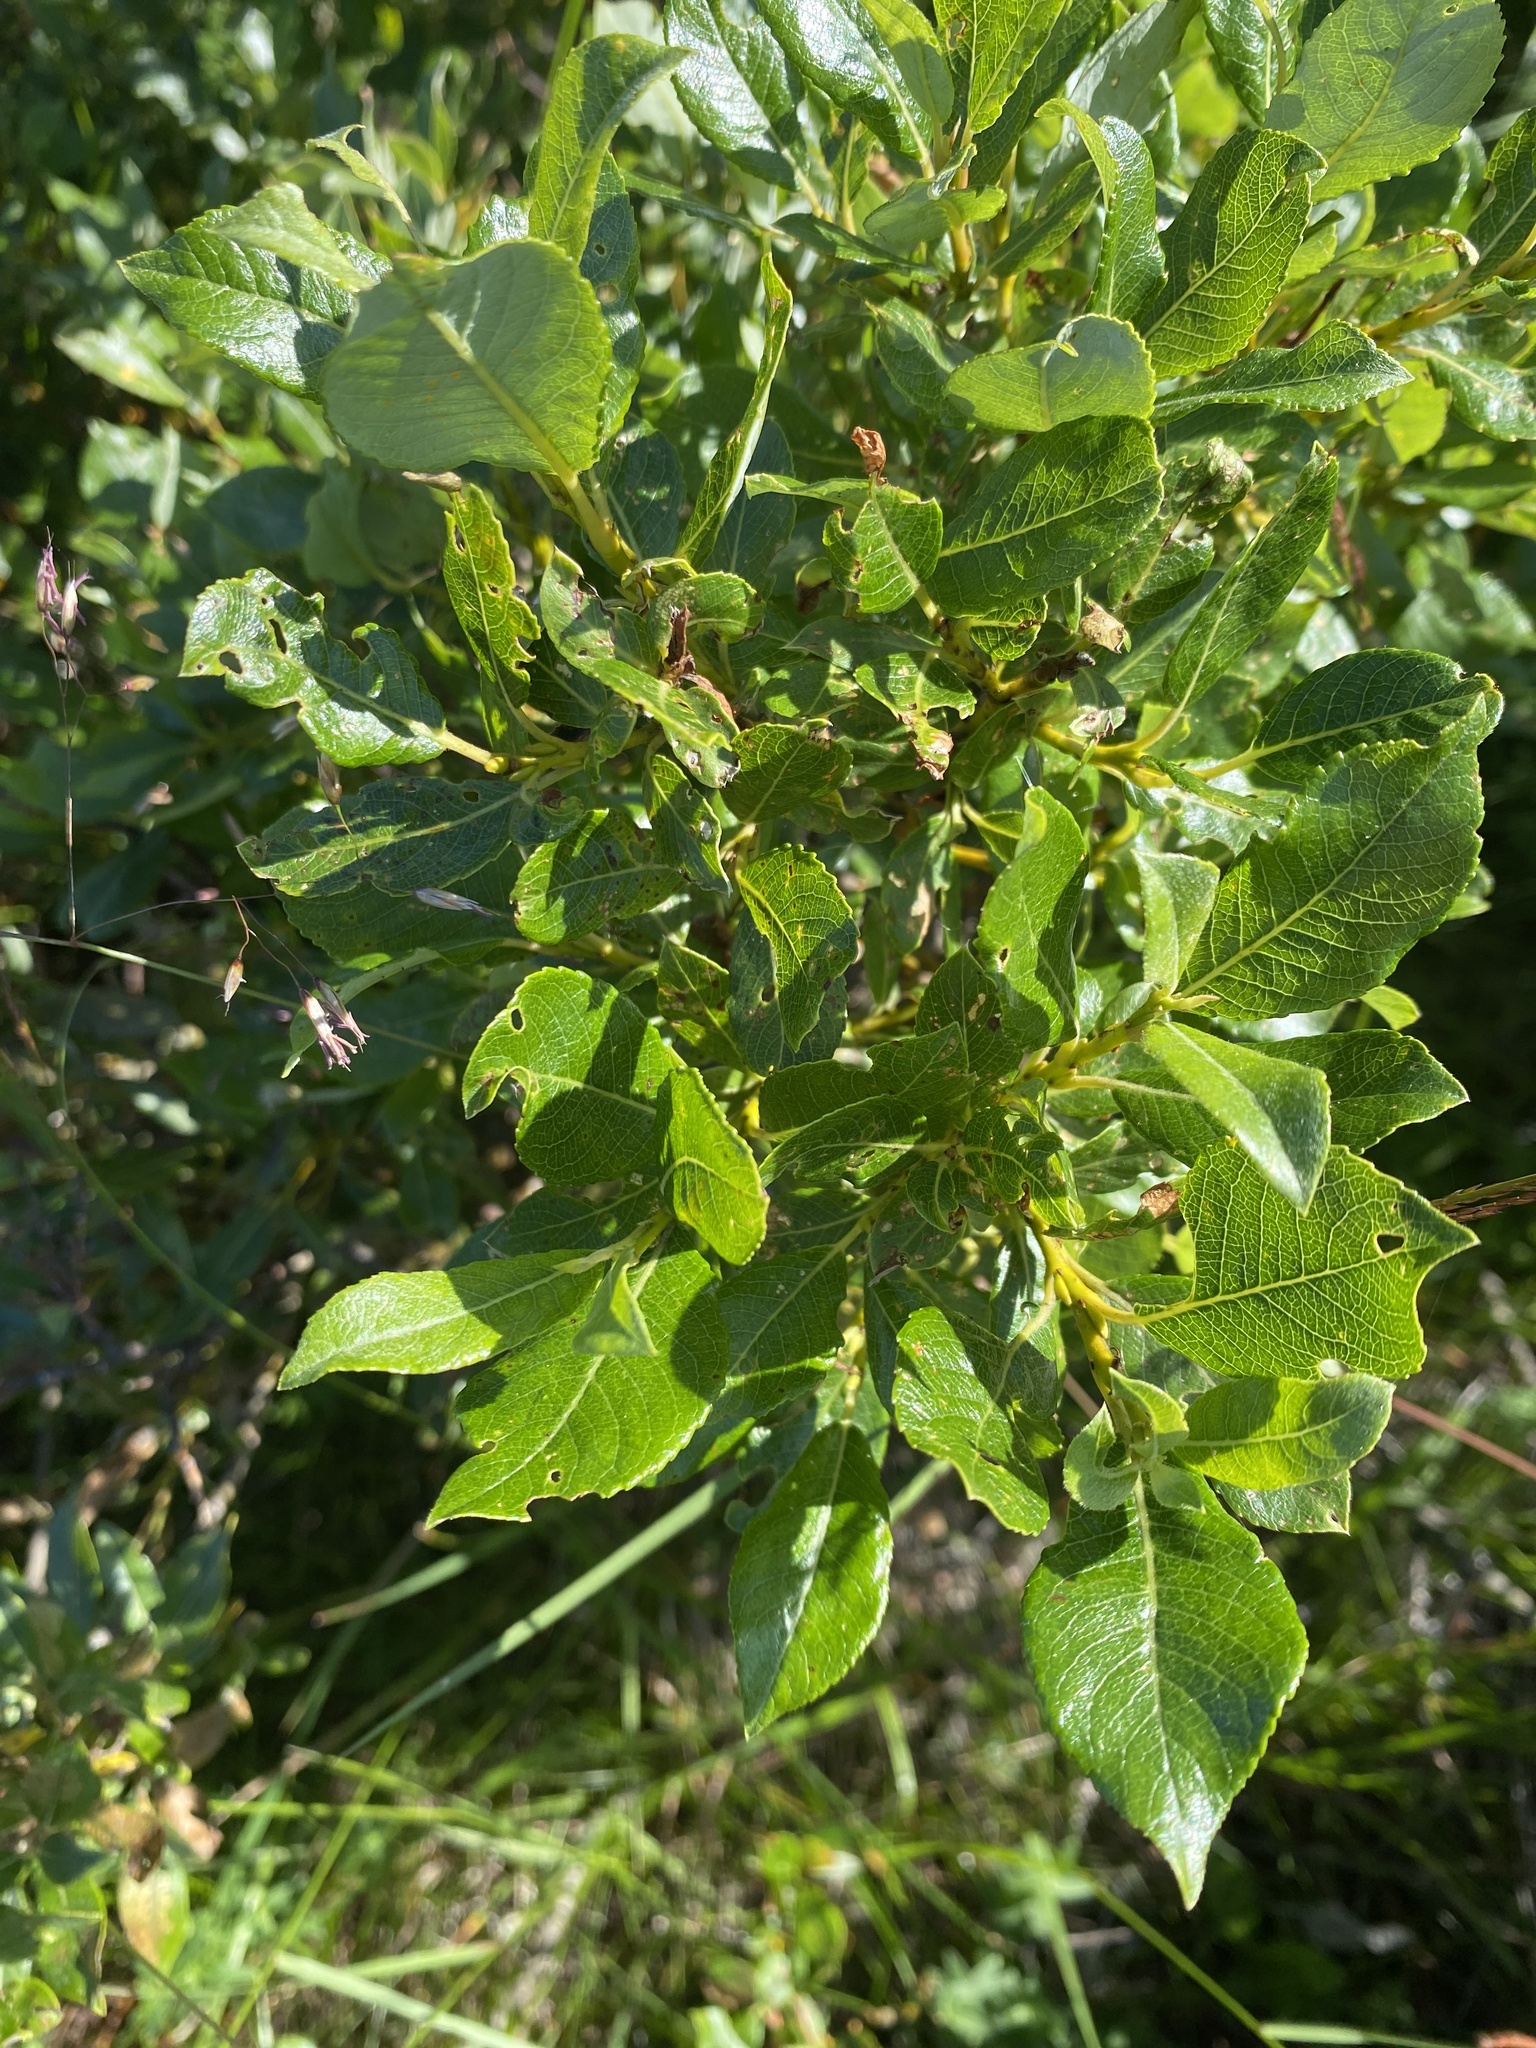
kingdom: Plantae
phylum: Tracheophyta
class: Magnoliopsida
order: Malpighiales
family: Salicaceae
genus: Salix
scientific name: Salix phylicifolia
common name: Tea-leaved willow
